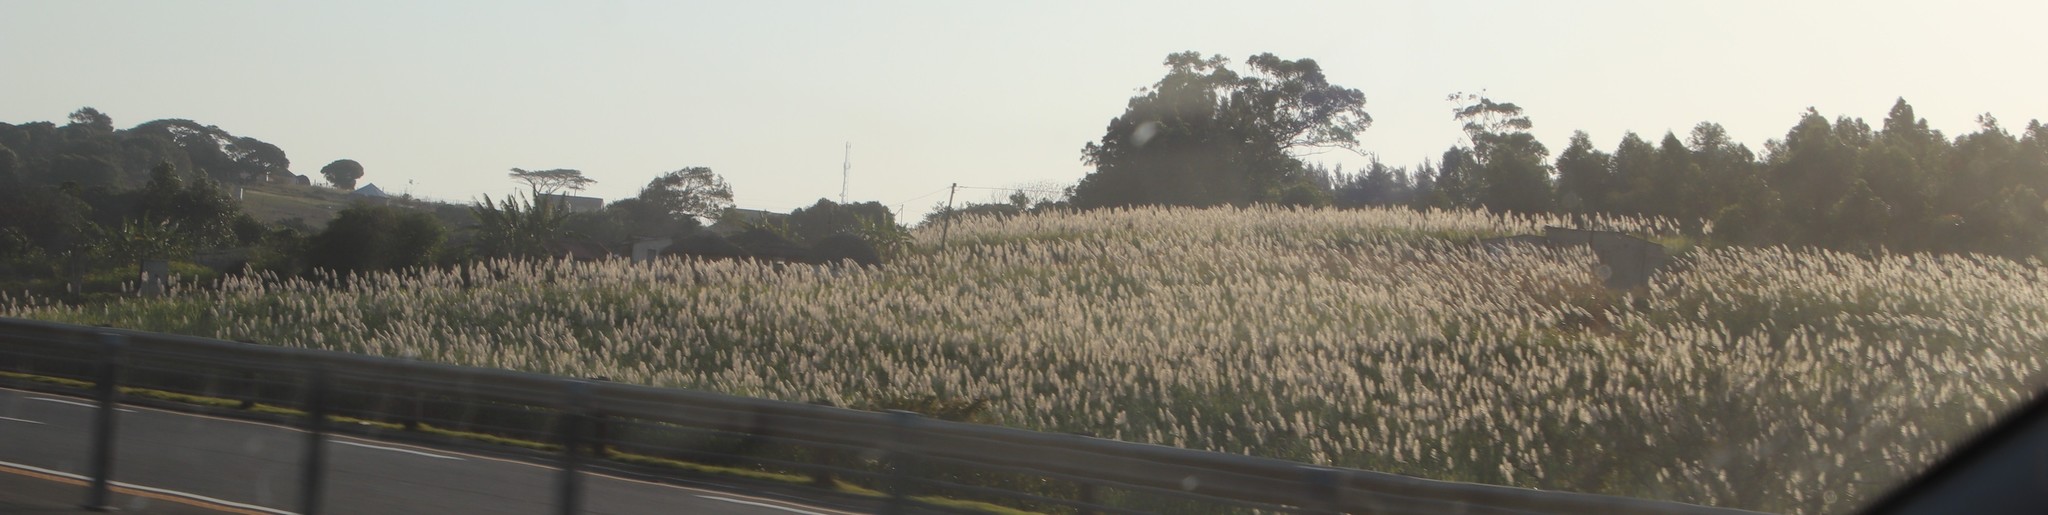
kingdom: Plantae
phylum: Tracheophyta
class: Liliopsida
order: Poales
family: Poaceae
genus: Saccharum
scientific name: Saccharum officinarum
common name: Sugarcane
